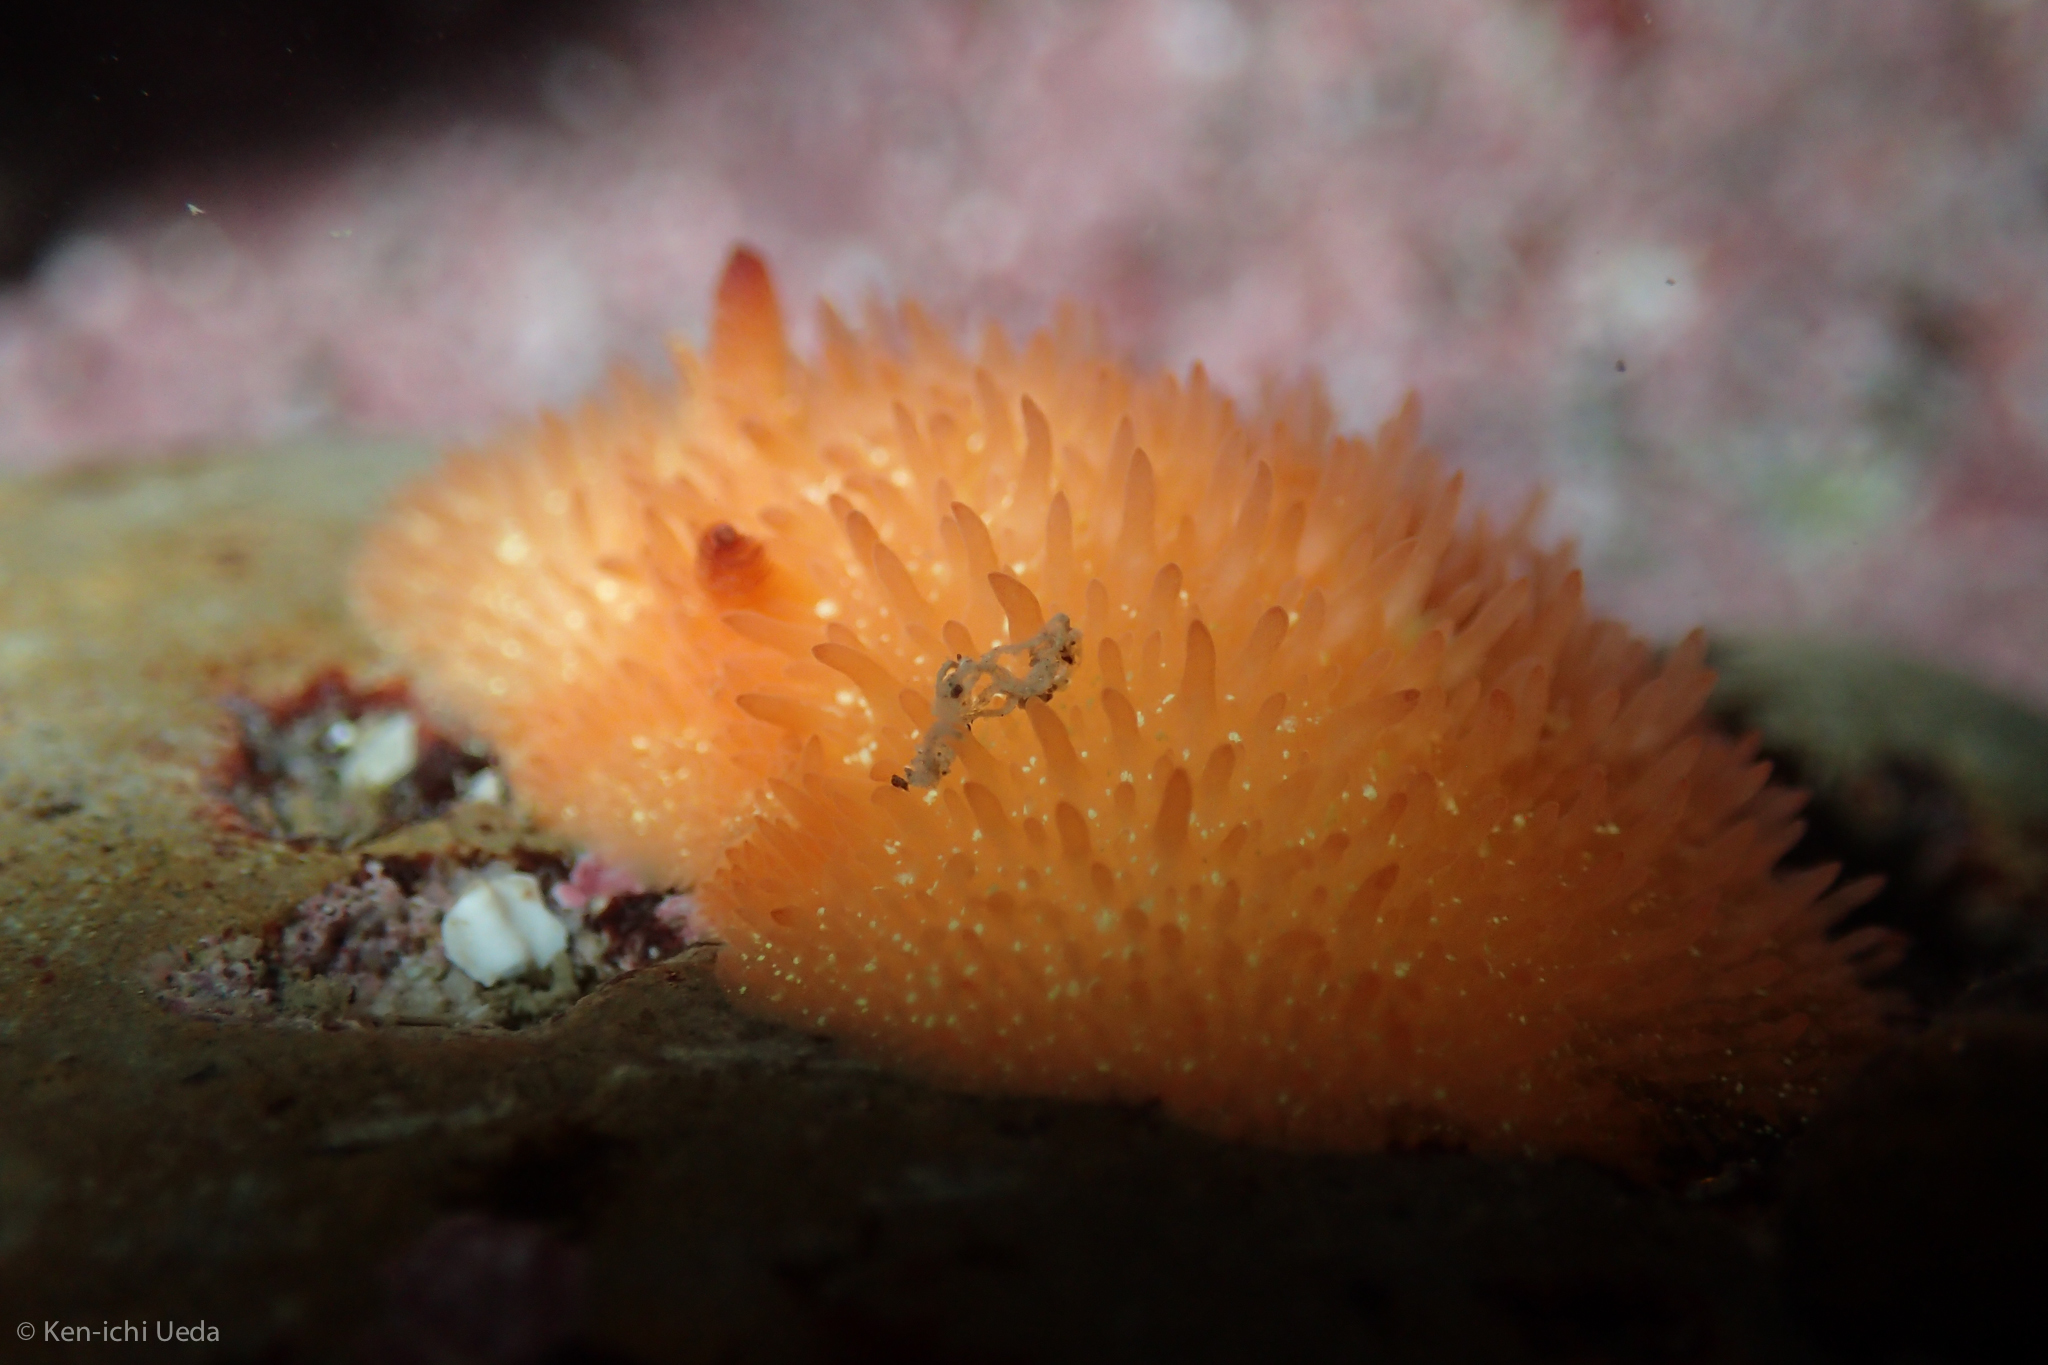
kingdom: Animalia
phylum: Mollusca
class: Gastropoda
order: Nudibranchia
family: Onchidorididae
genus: Acanthodoris
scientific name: Acanthodoris lutea
